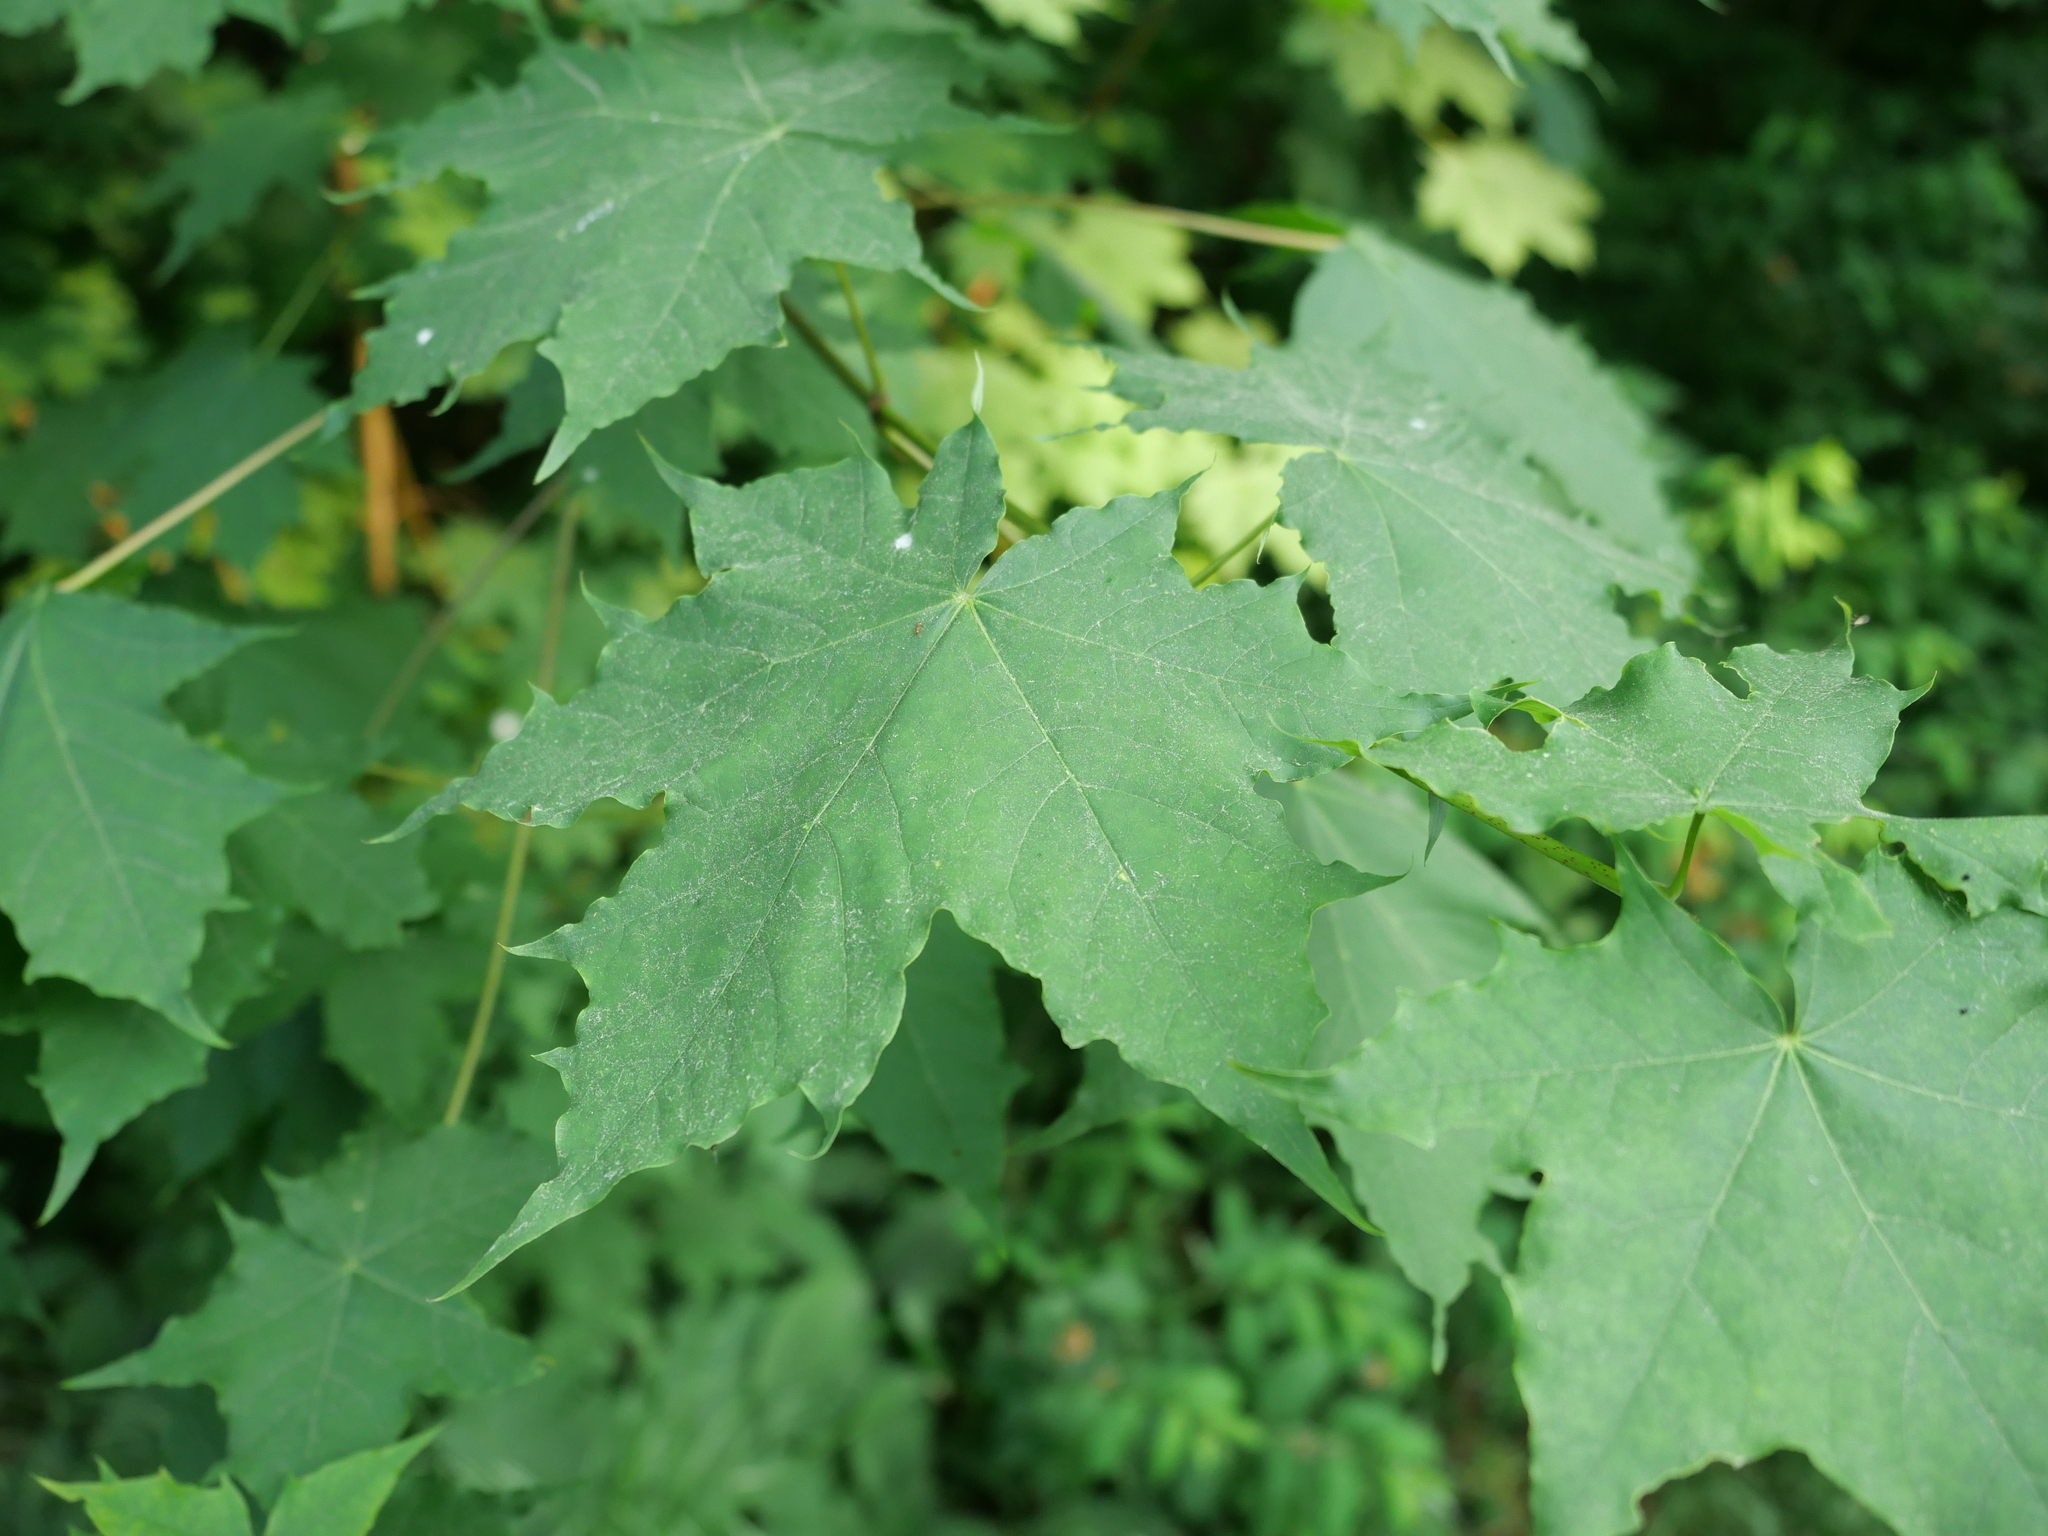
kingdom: Plantae
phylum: Tracheophyta
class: Magnoliopsida
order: Sapindales
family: Sapindaceae
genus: Acer
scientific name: Acer platanoides
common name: Norway maple
